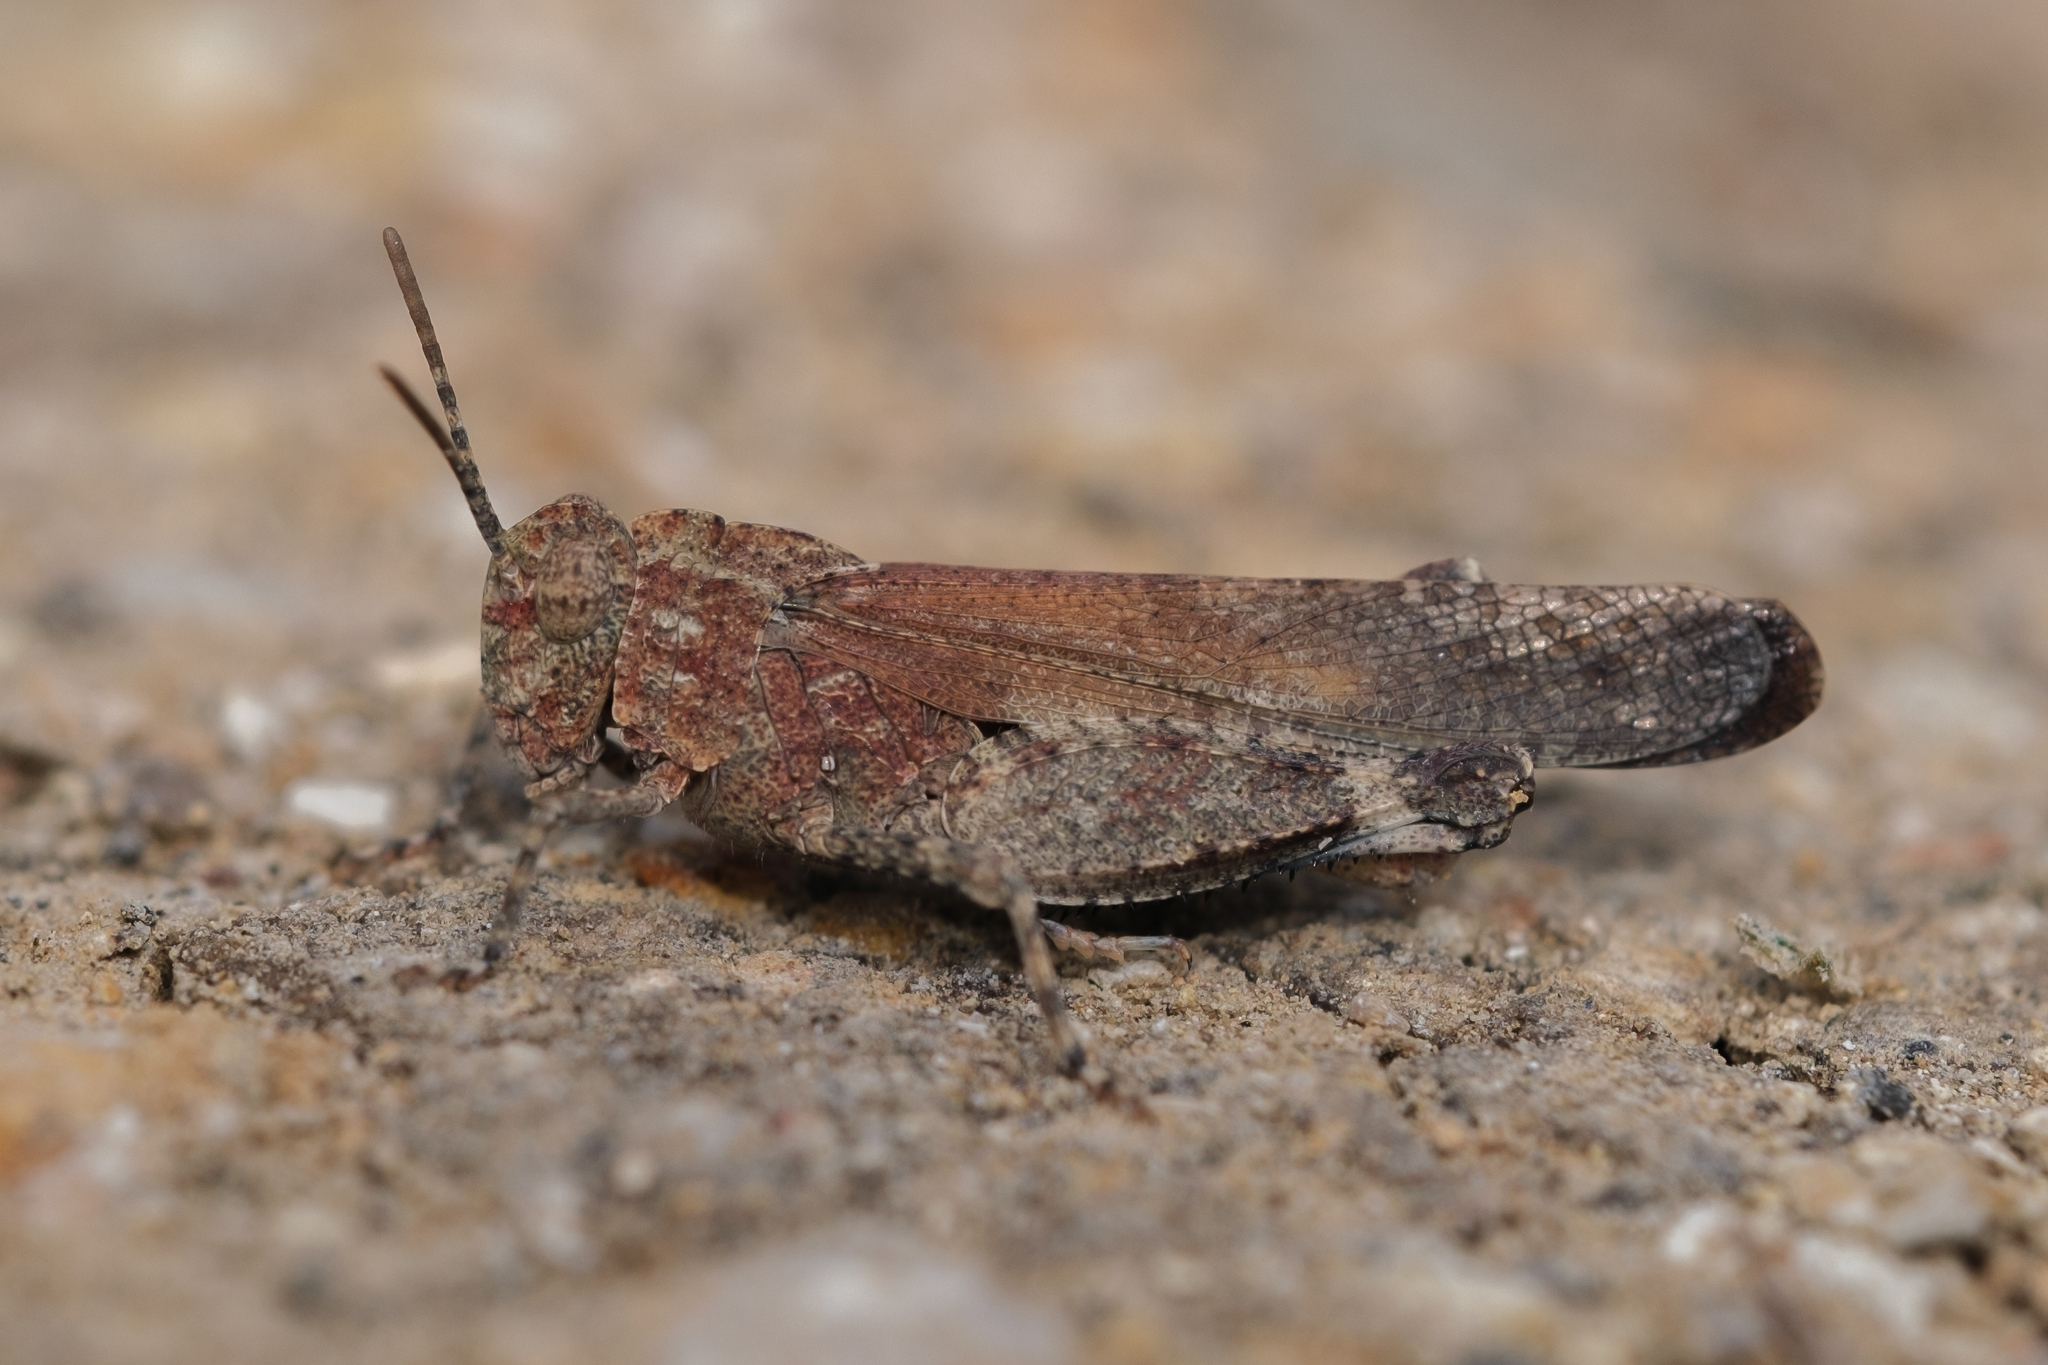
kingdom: Animalia
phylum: Arthropoda
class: Insecta
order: Orthoptera
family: Acrididae
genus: Lactista
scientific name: Lactista gibbosus
